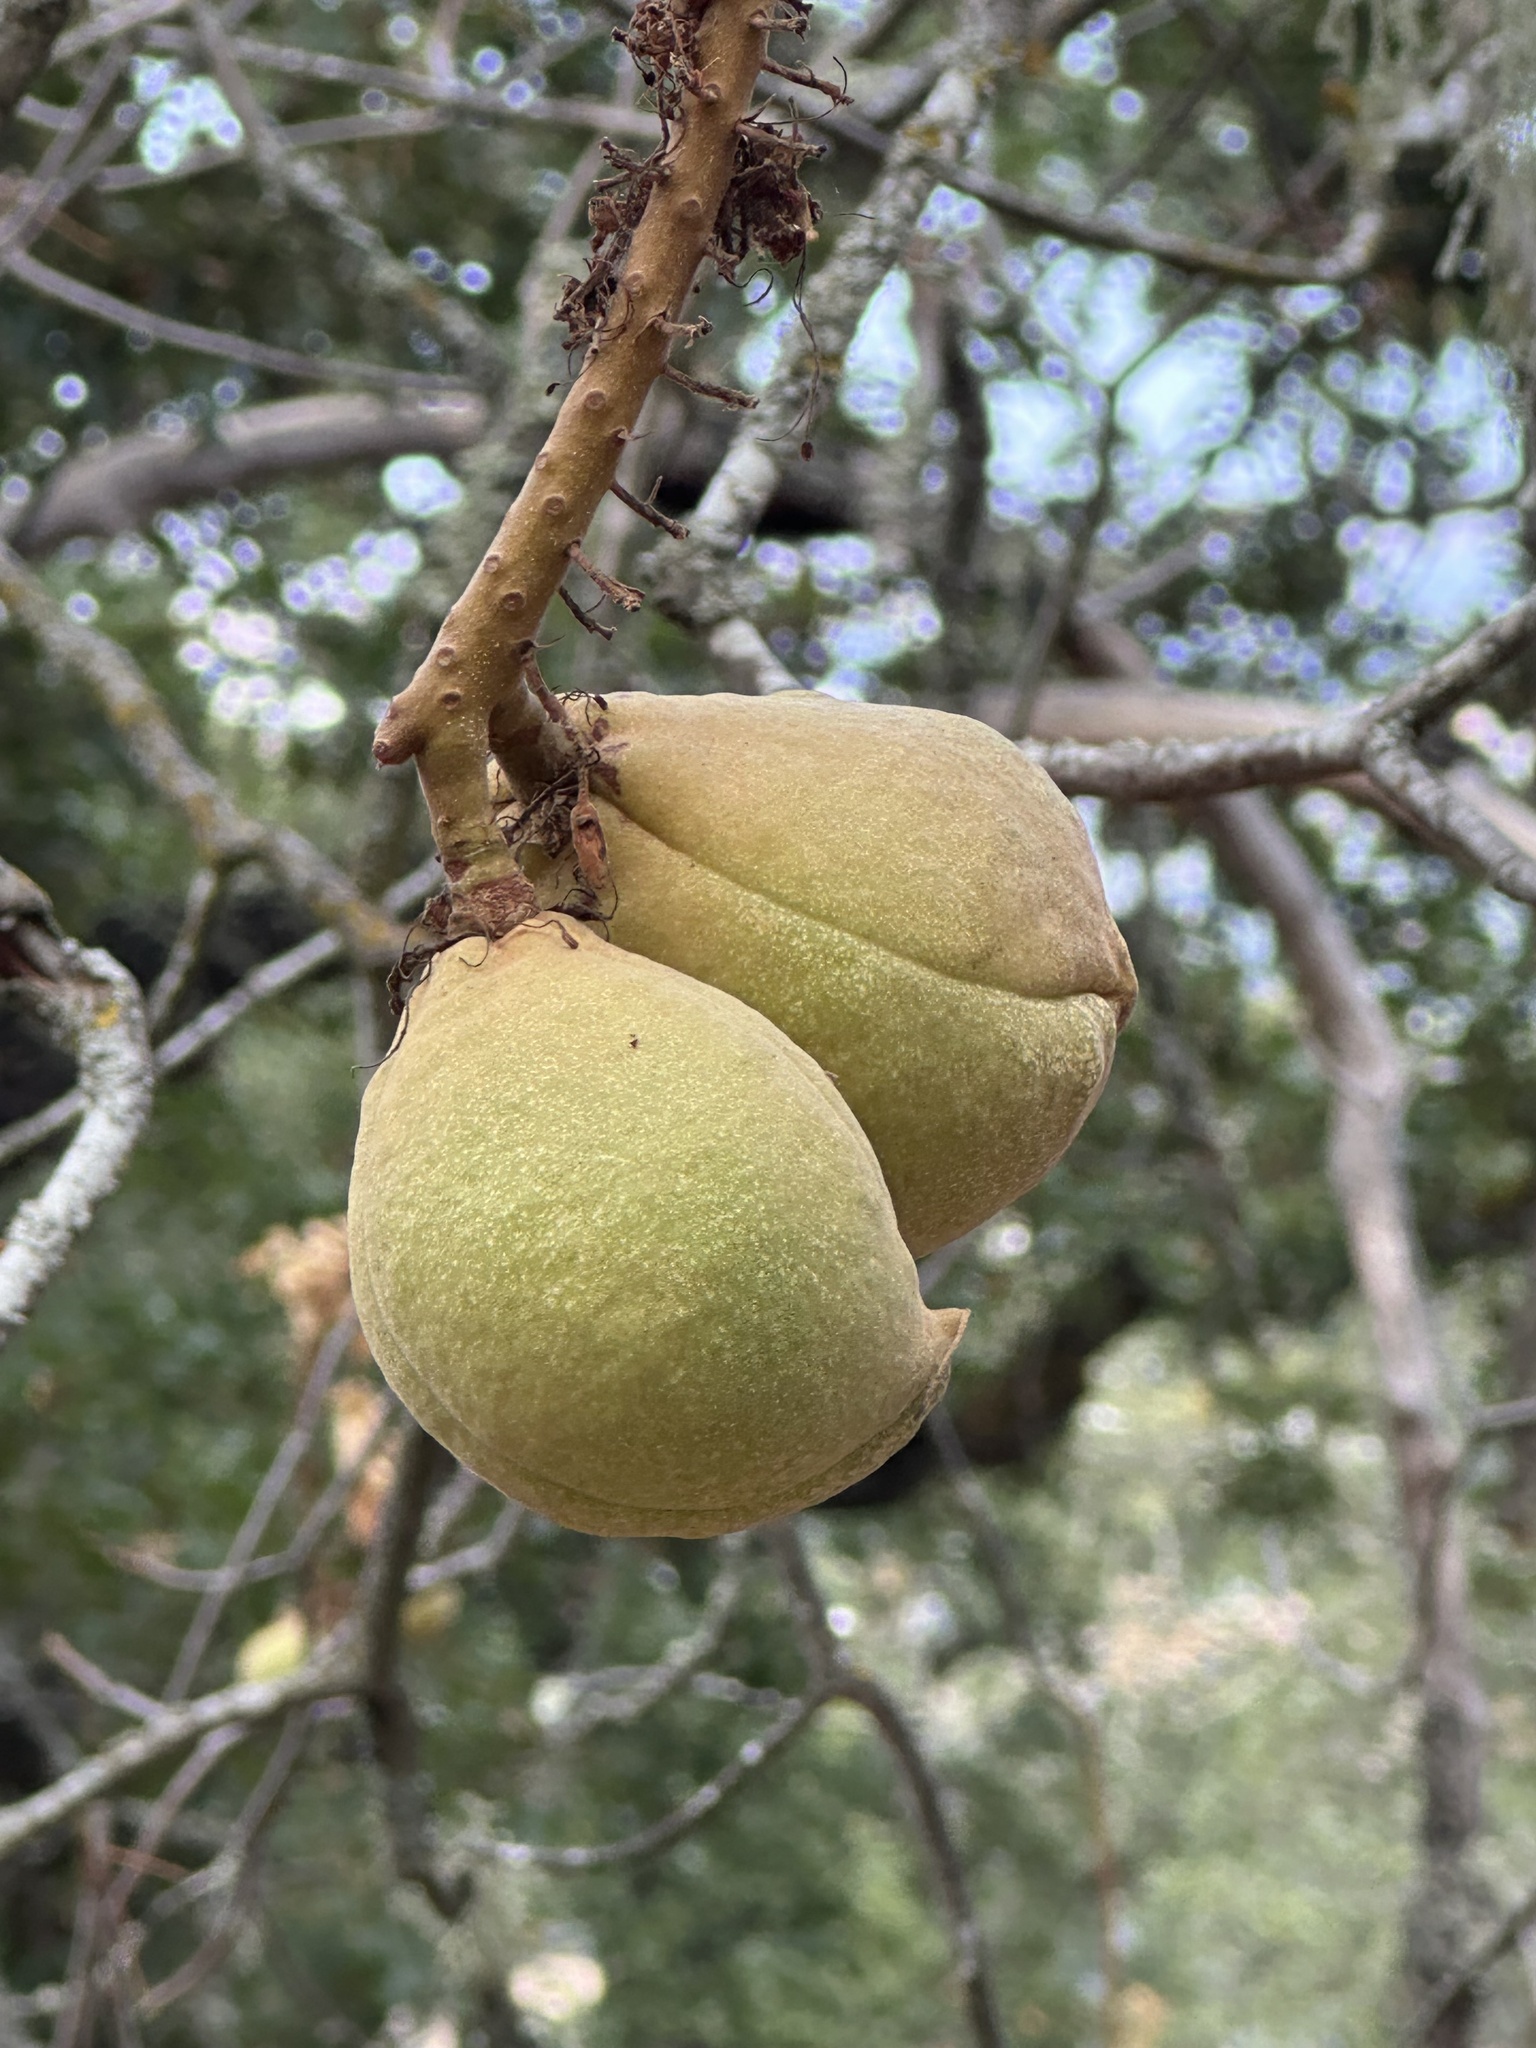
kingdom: Plantae
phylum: Tracheophyta
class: Magnoliopsida
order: Sapindales
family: Sapindaceae
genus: Aesculus
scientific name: Aesculus californica
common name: California buckeye
